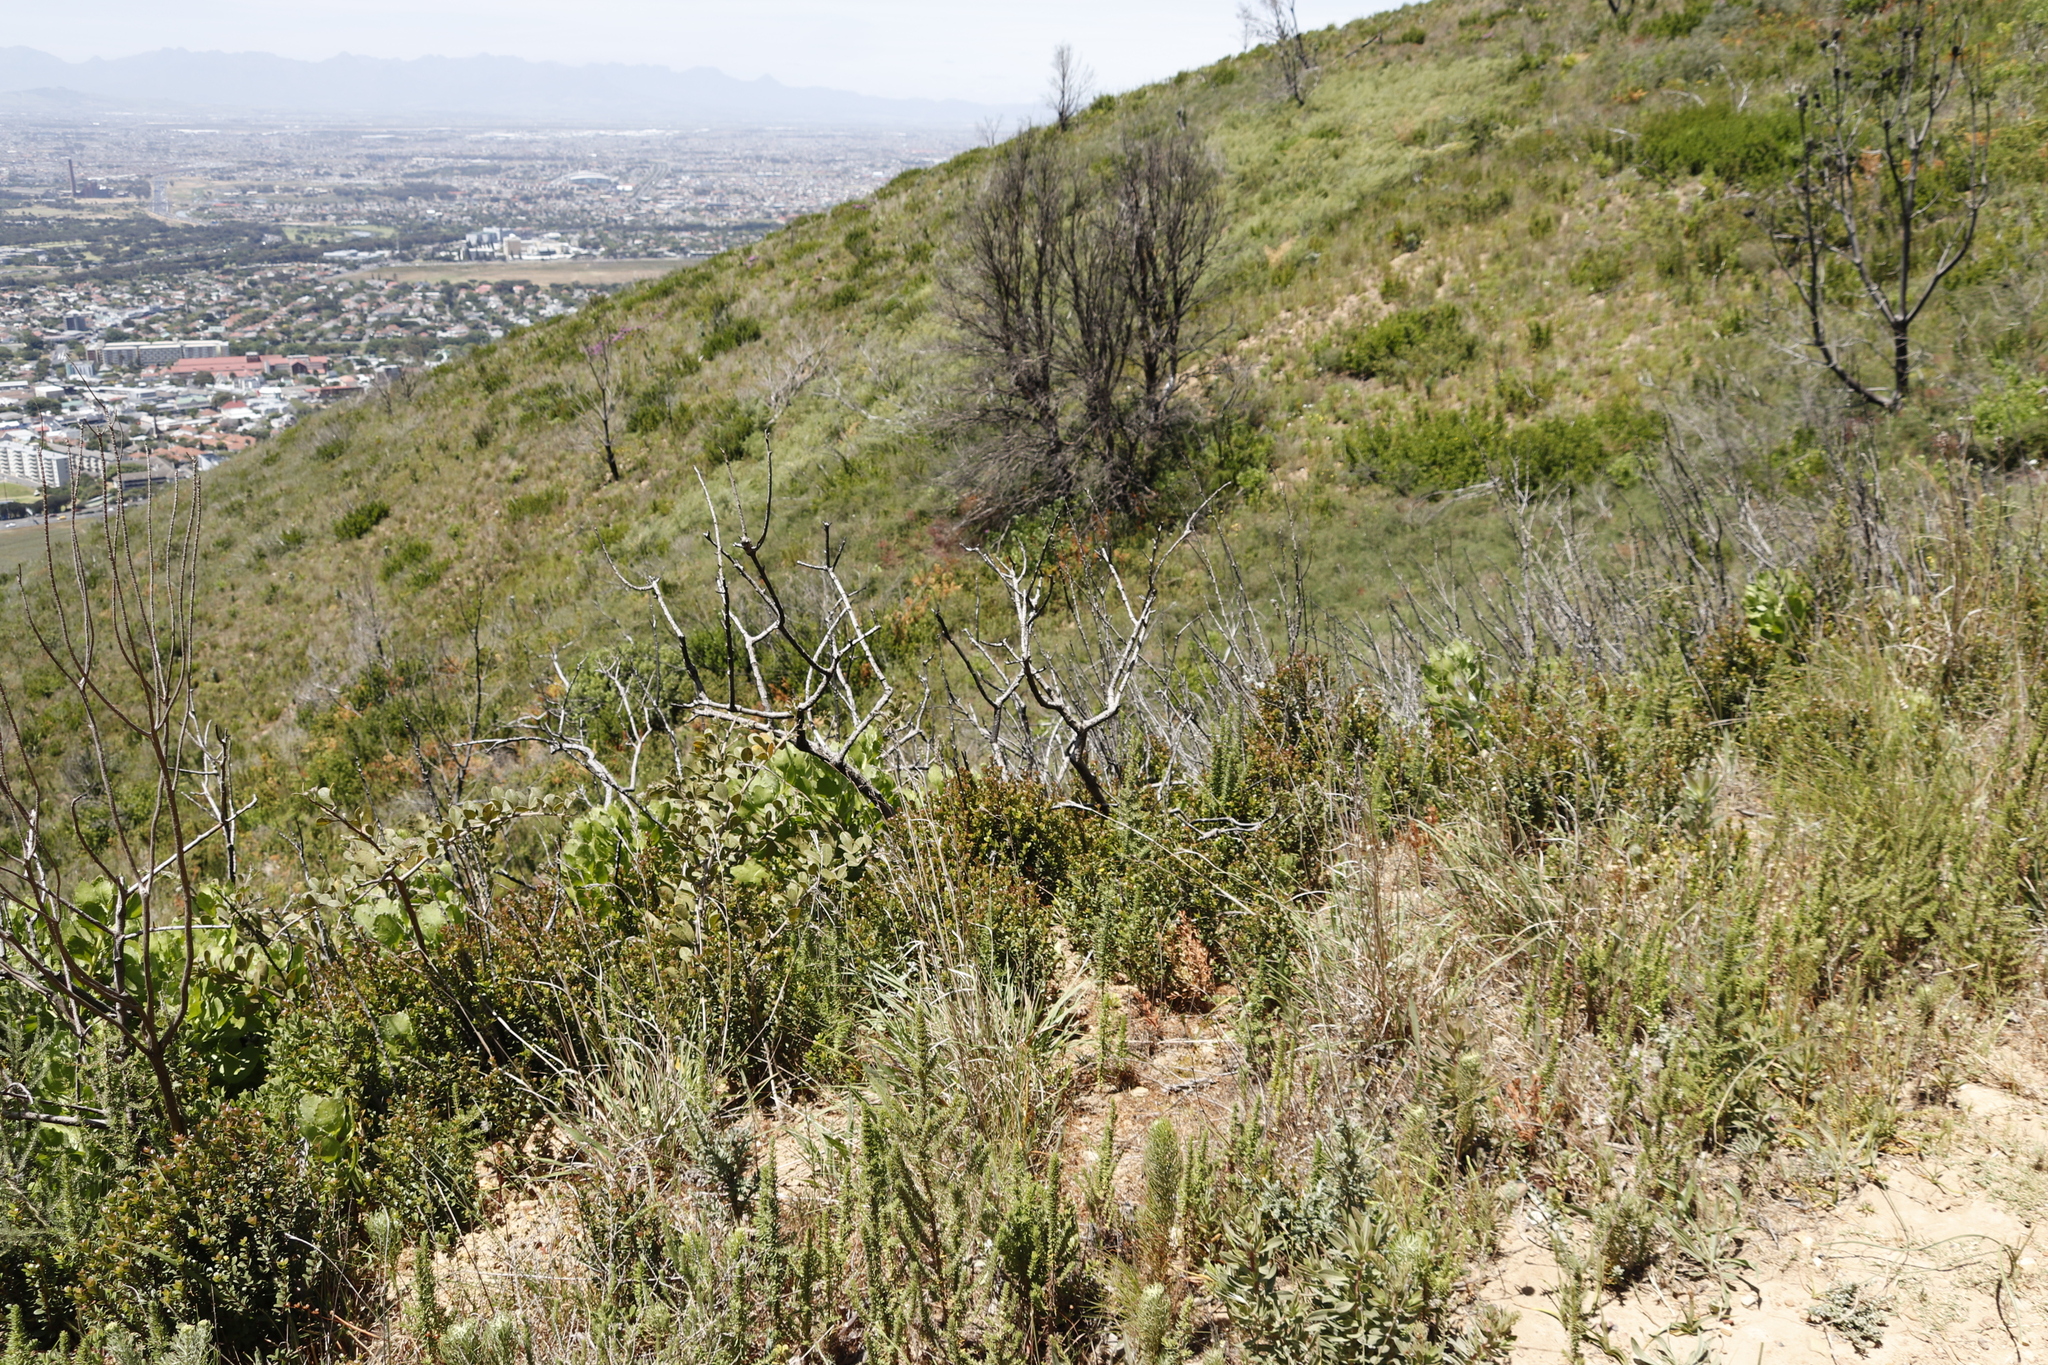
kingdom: Plantae
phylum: Tracheophyta
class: Magnoliopsida
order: Sapindales
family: Anacardiaceae
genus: Searsia
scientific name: Searsia laevigata
